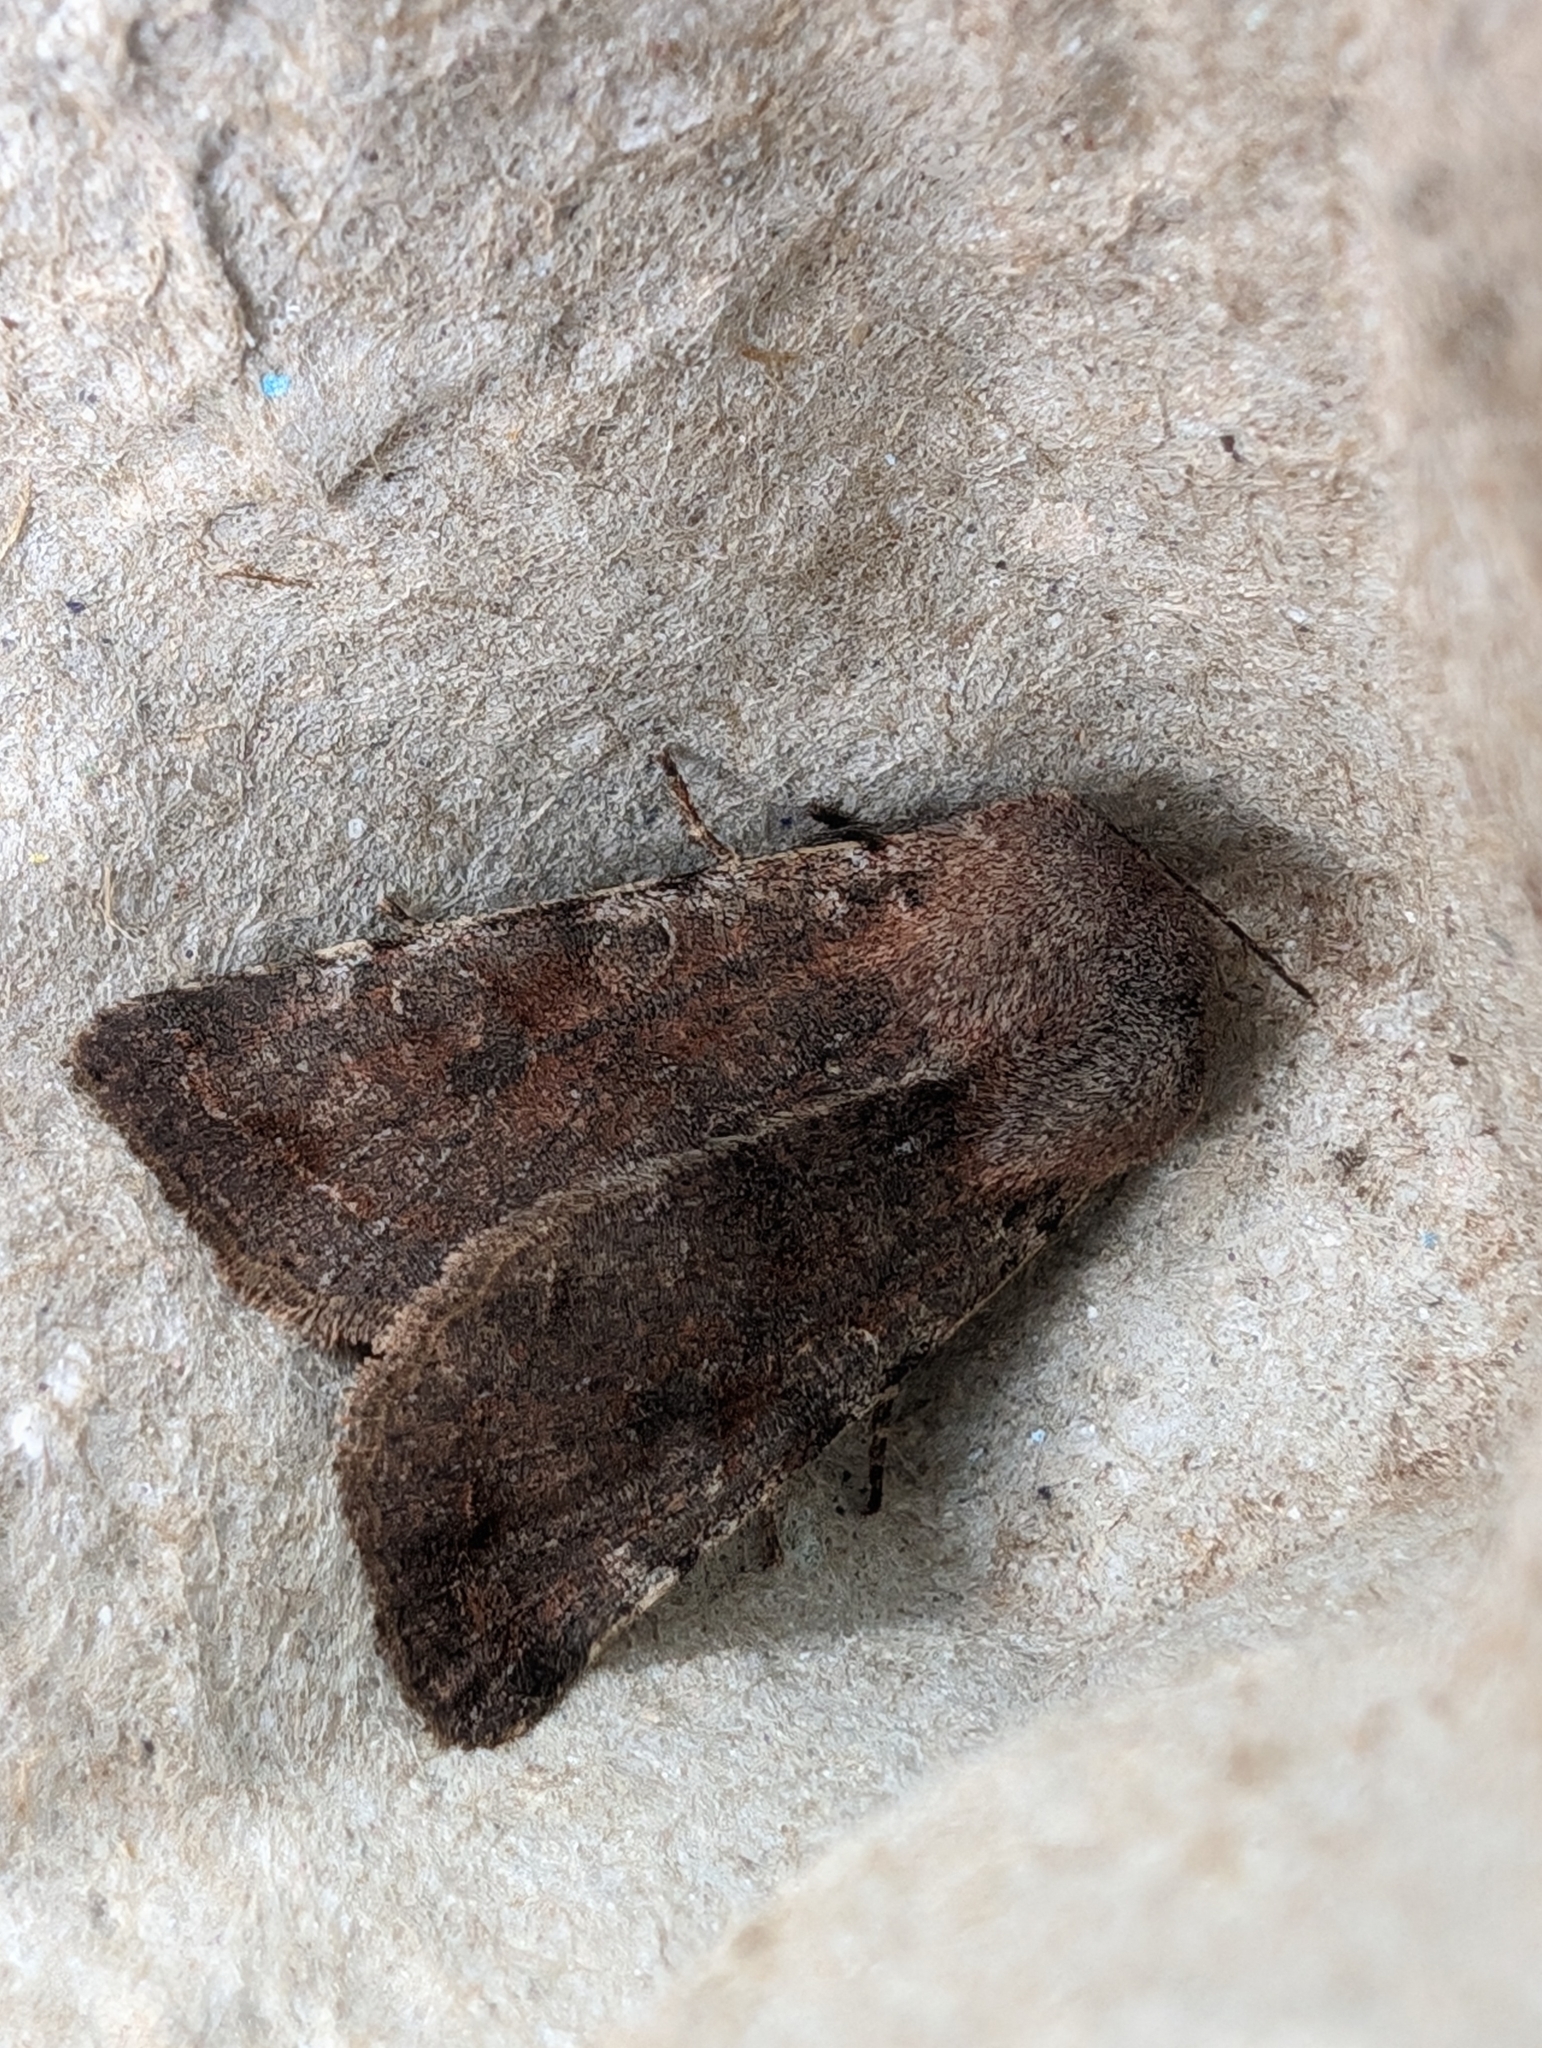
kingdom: Animalia
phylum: Arthropoda
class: Insecta
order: Lepidoptera
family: Noctuidae
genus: Orthosia
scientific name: Orthosia incerta
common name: Clouded drab
